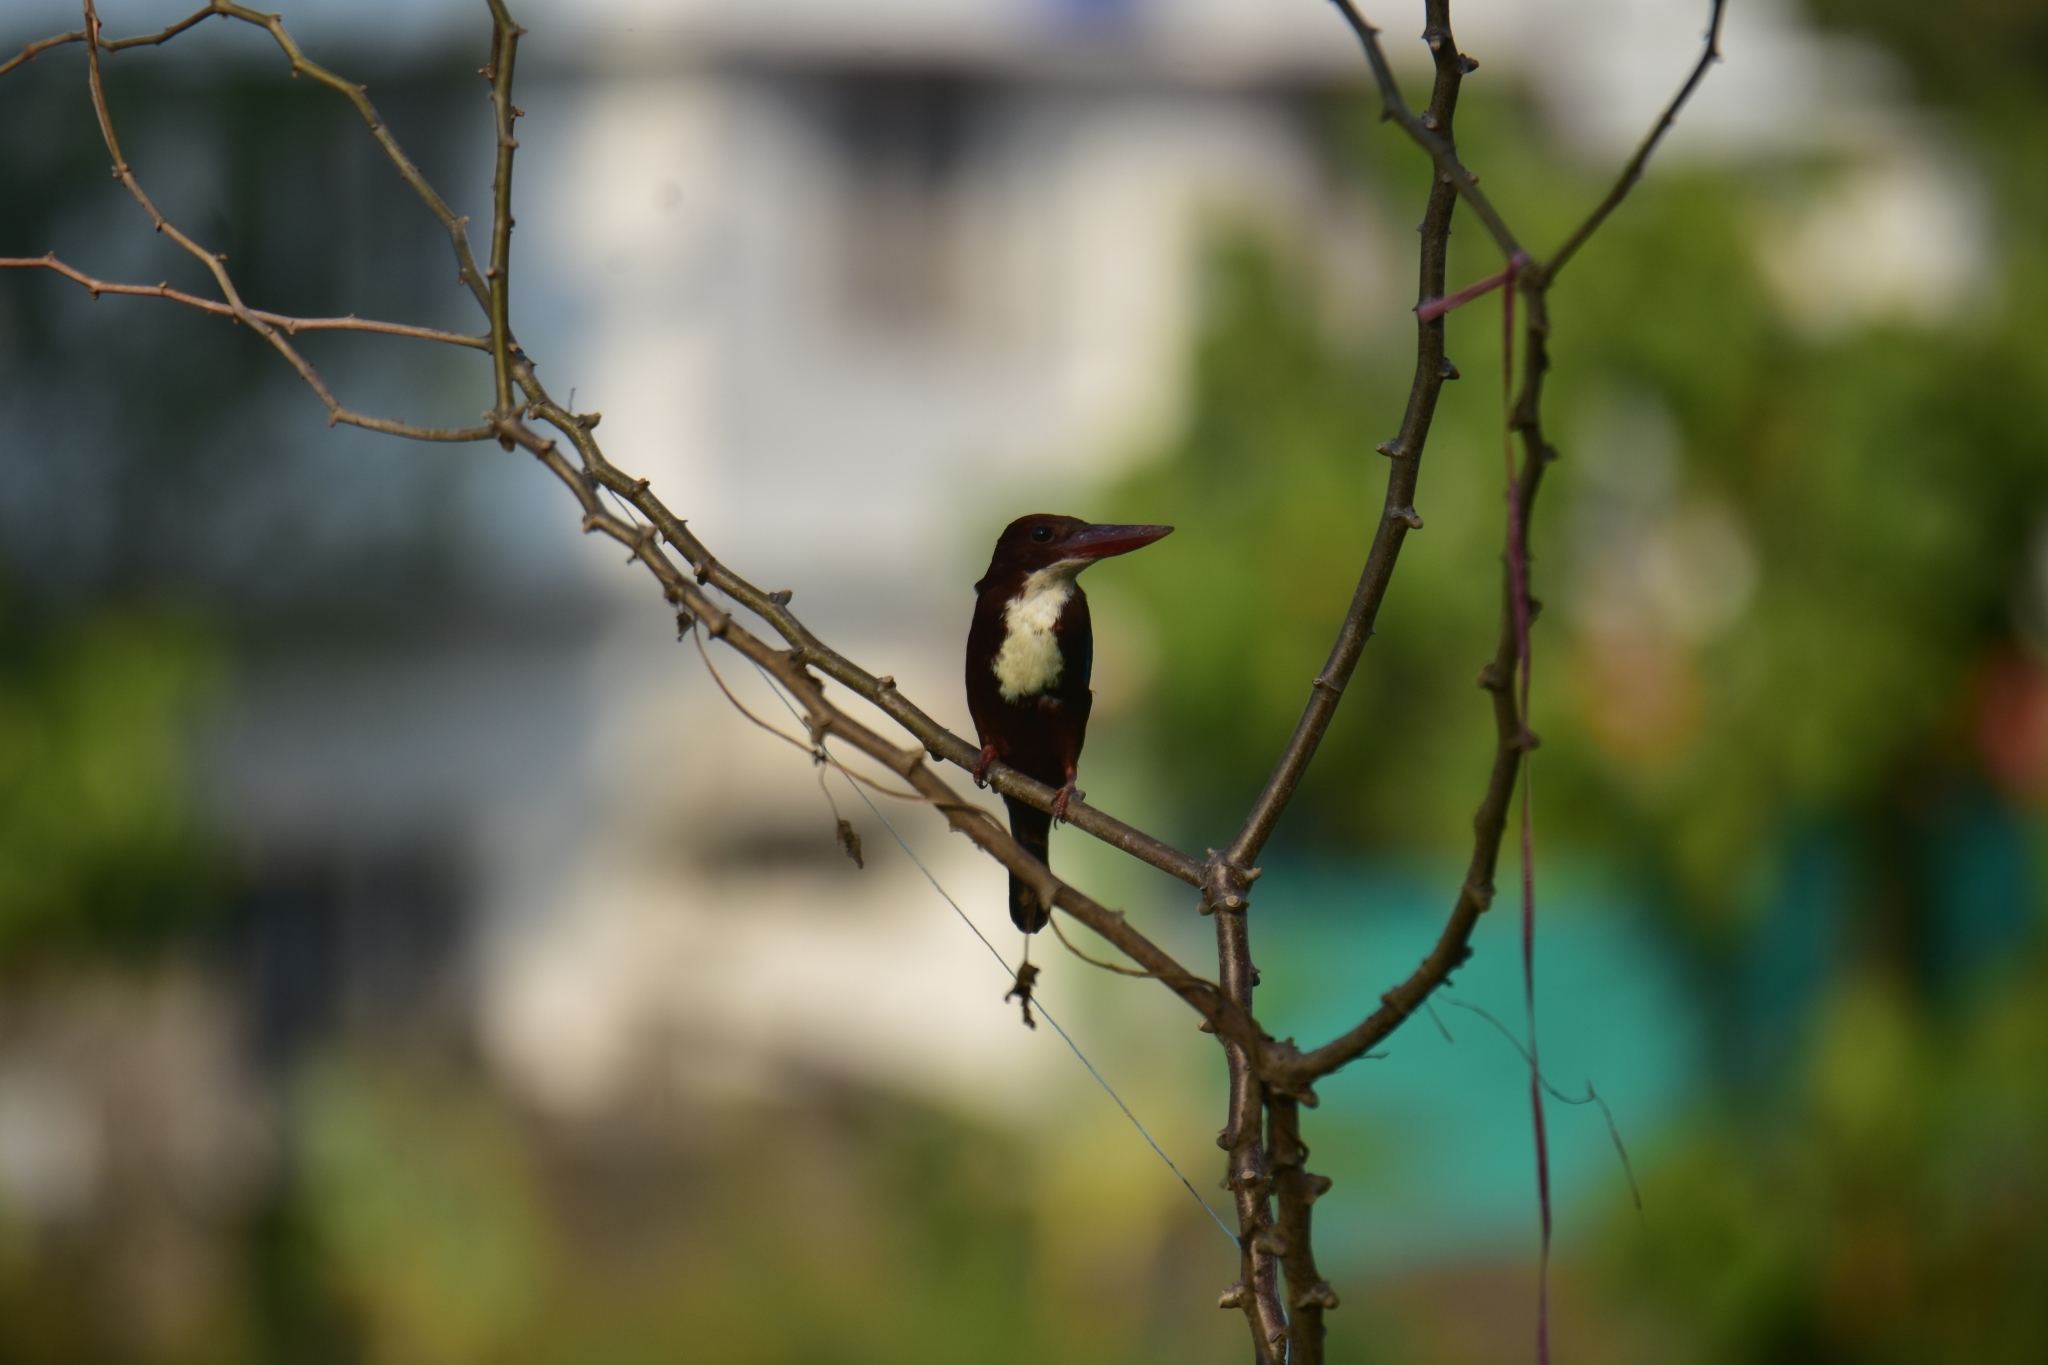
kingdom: Animalia
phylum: Chordata
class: Aves
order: Coraciiformes
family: Alcedinidae
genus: Halcyon
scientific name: Halcyon smyrnensis
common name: White-throated kingfisher
